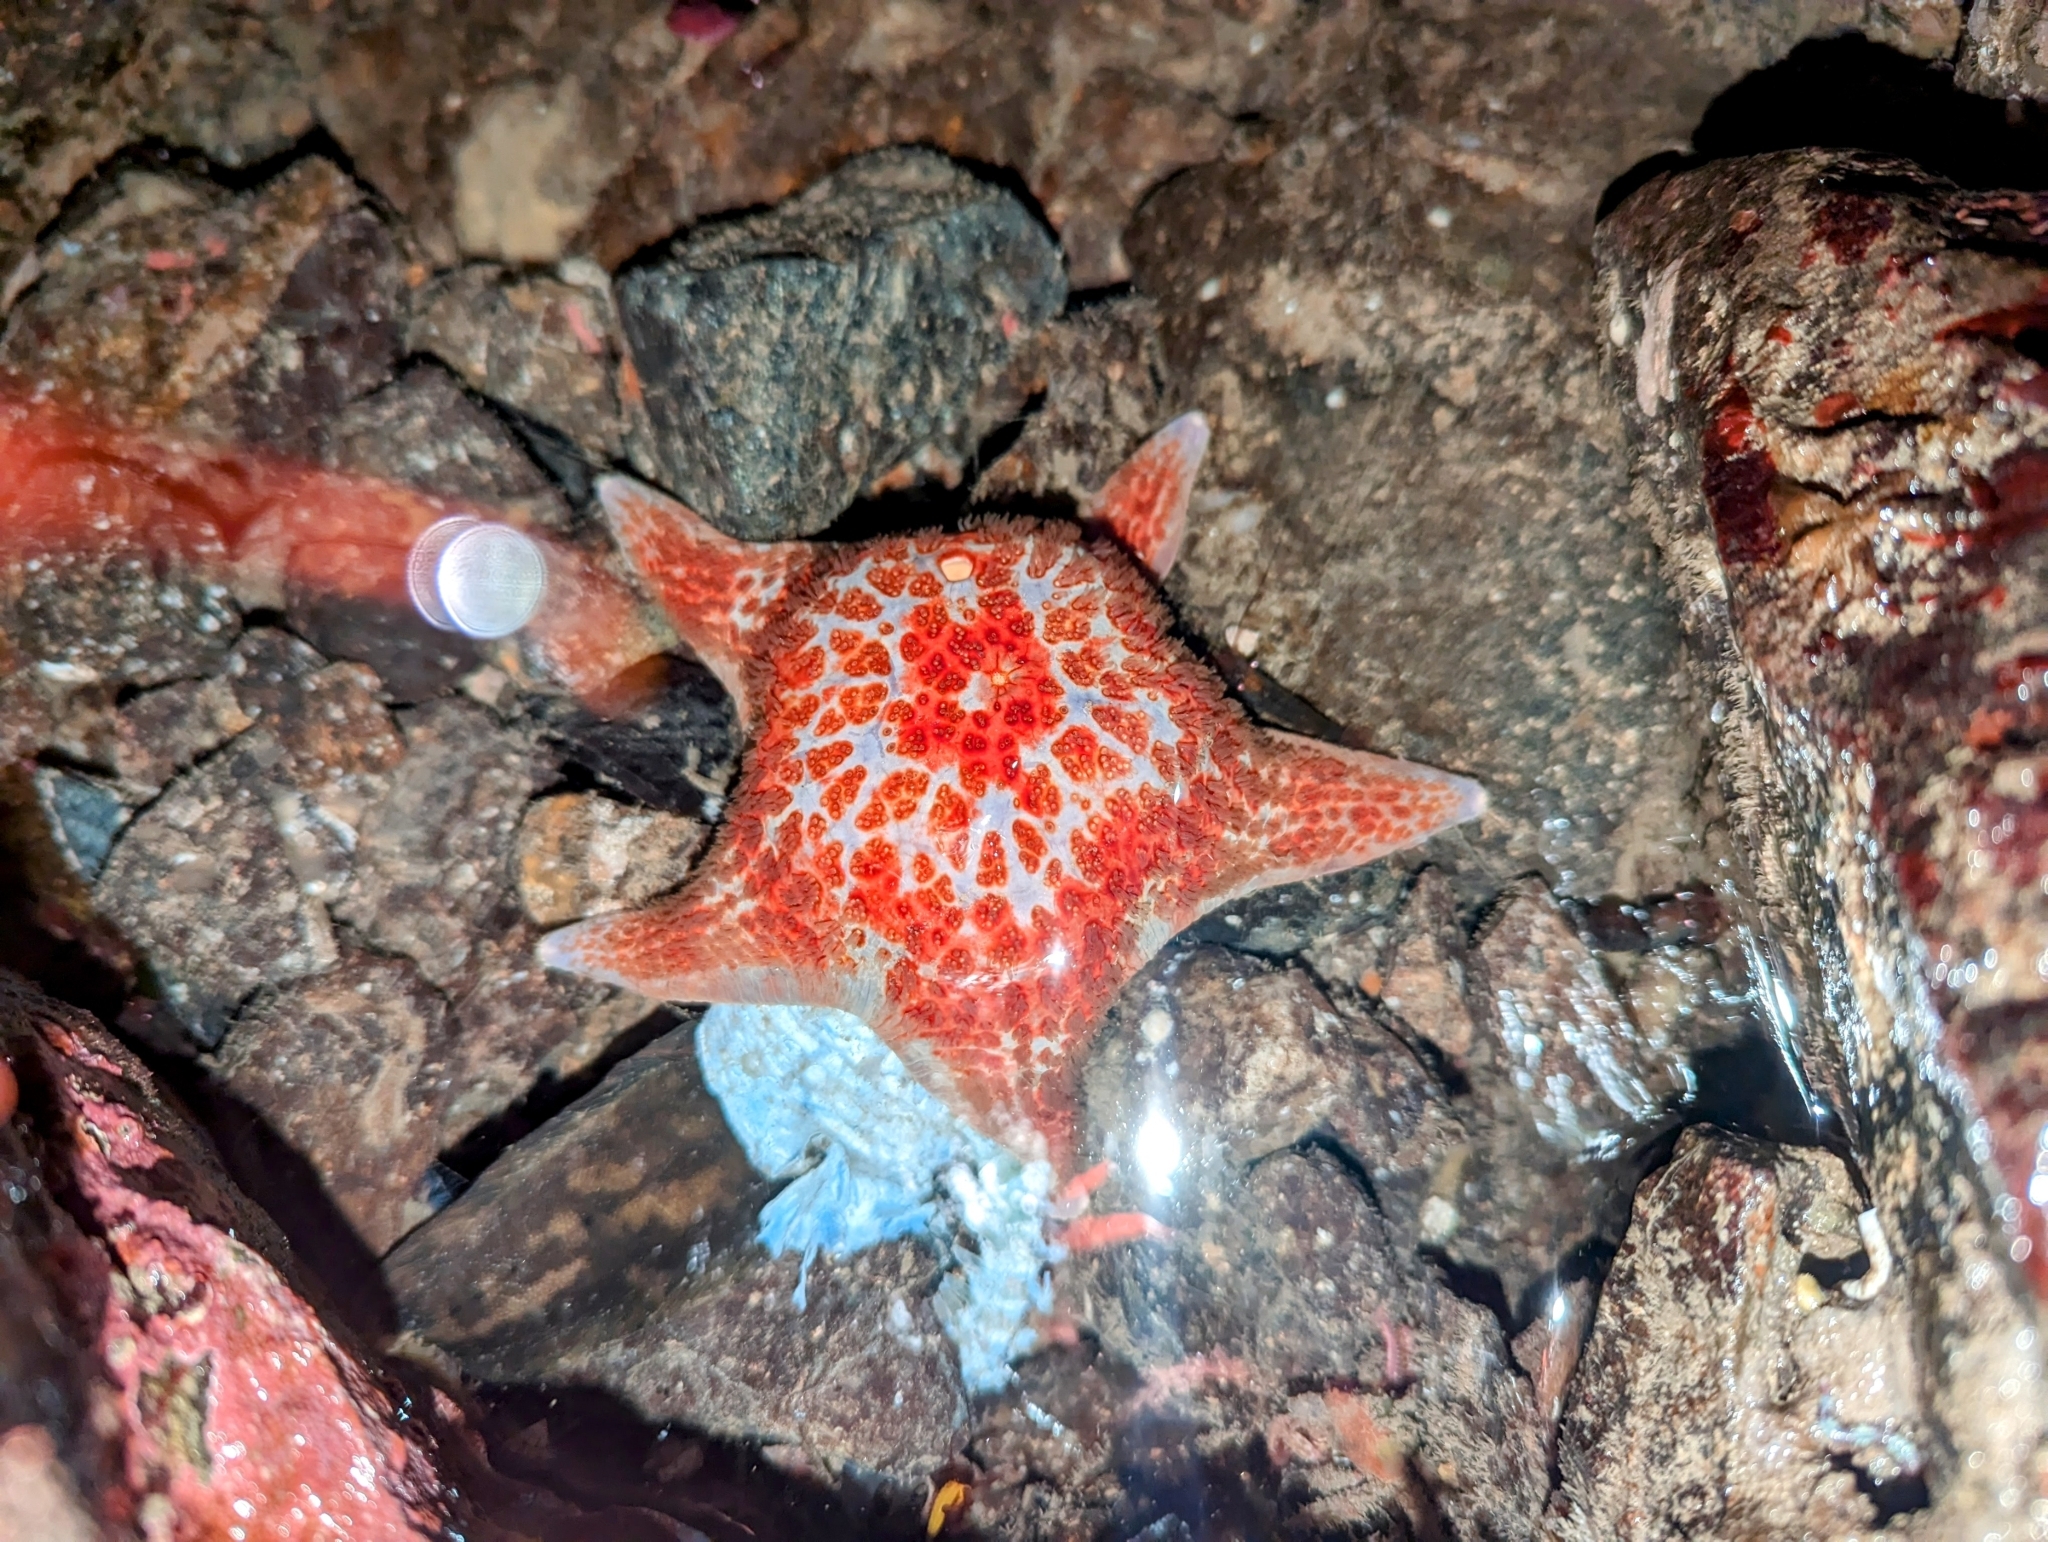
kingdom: Animalia
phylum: Echinodermata
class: Asteroidea
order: Valvatida
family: Asteropseidae
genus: Dermasterias
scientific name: Dermasterias imbricata
